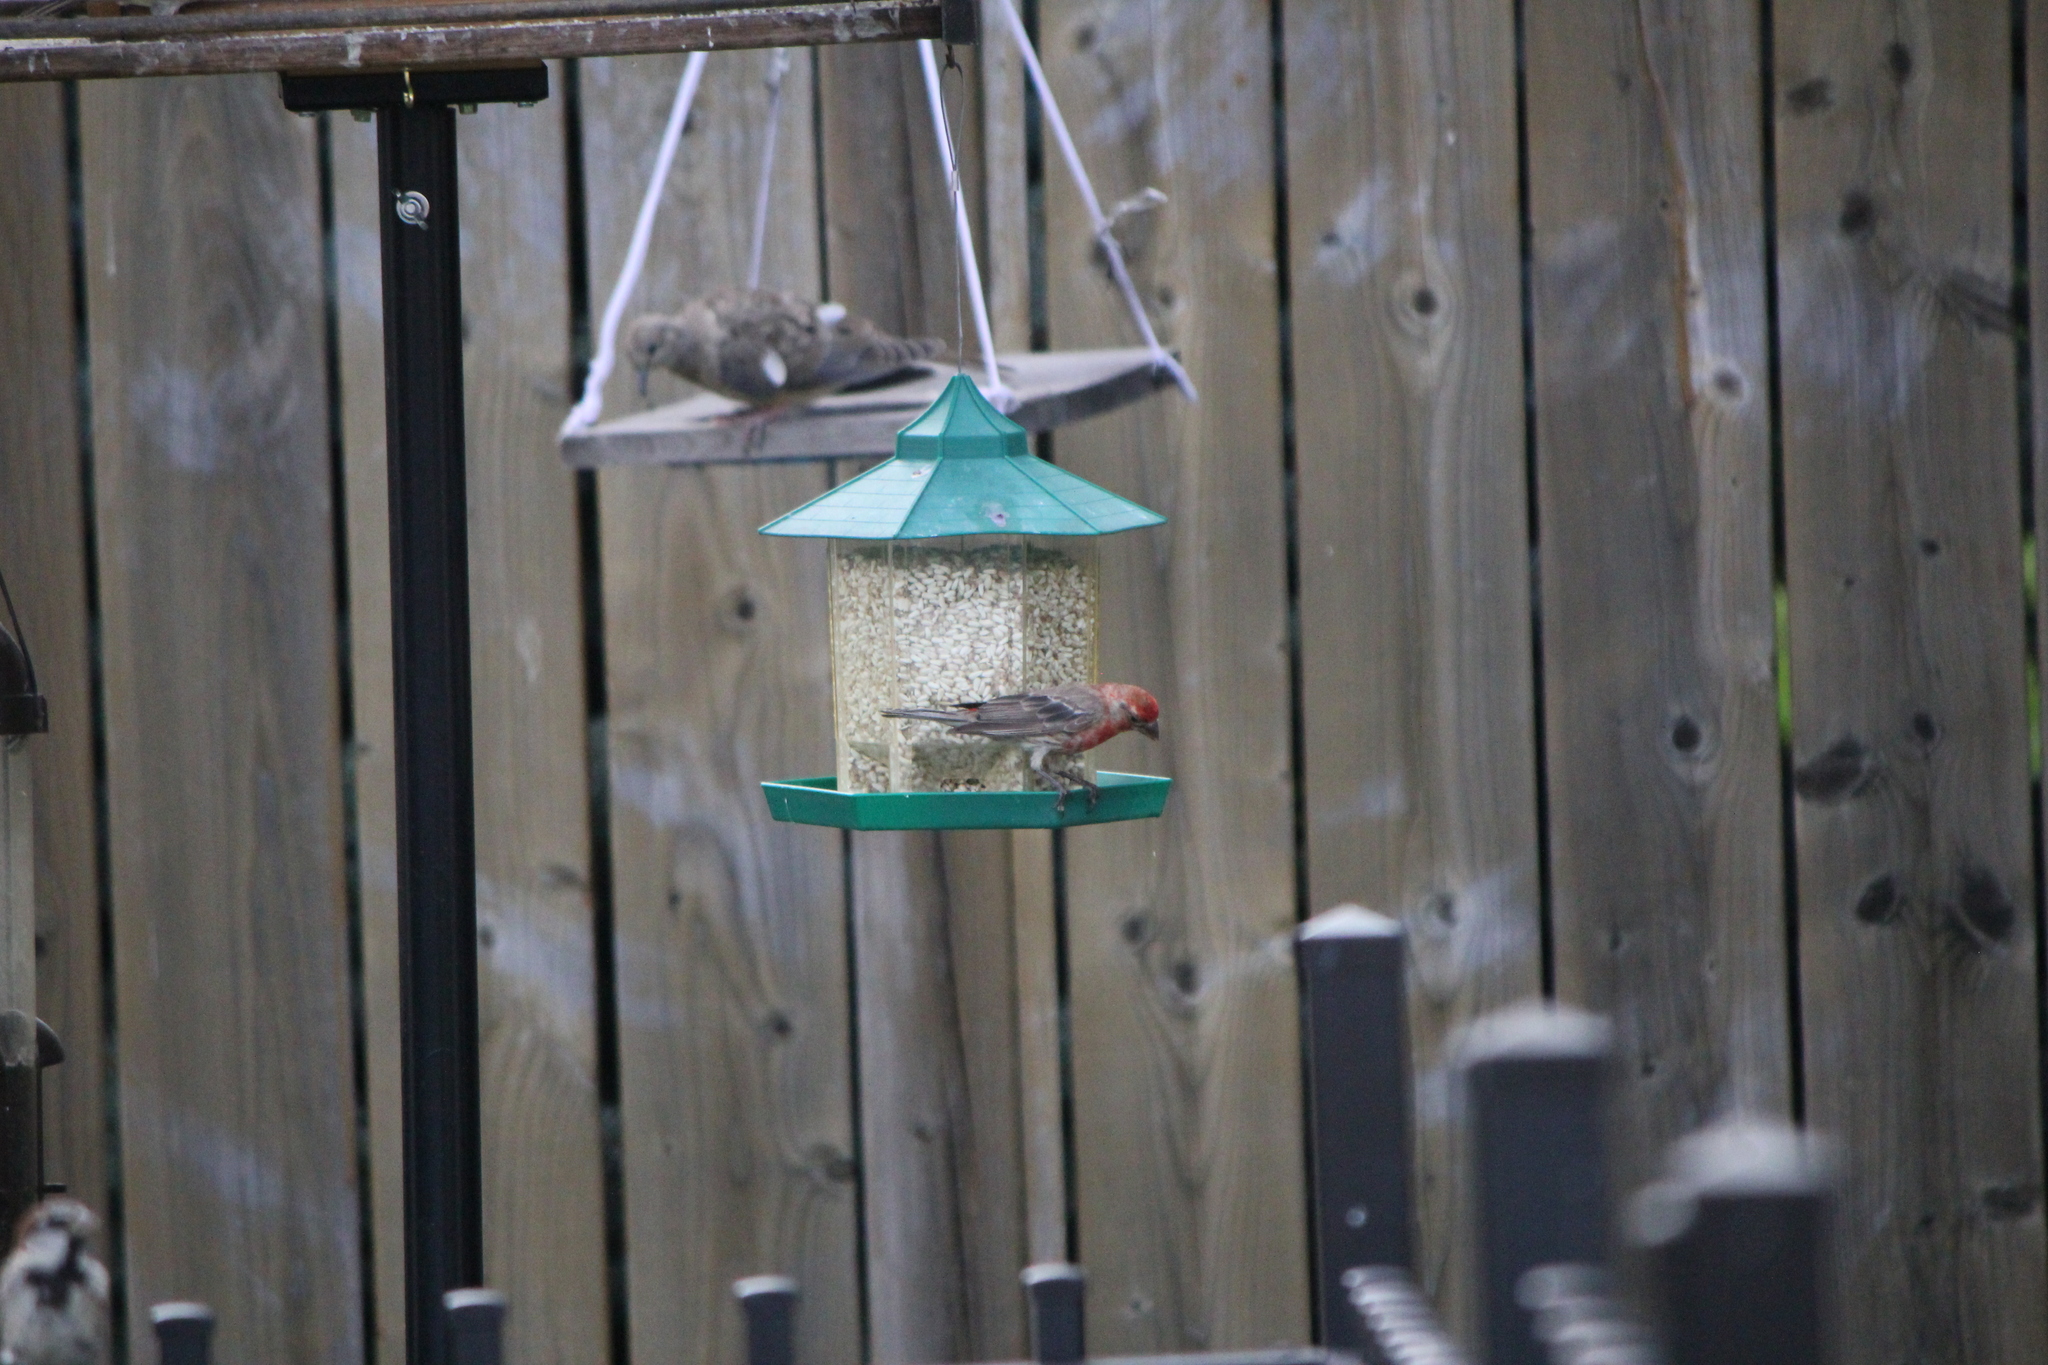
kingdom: Animalia
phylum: Chordata
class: Aves
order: Passeriformes
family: Fringillidae
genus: Haemorhous
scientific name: Haemorhous mexicanus
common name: House finch
